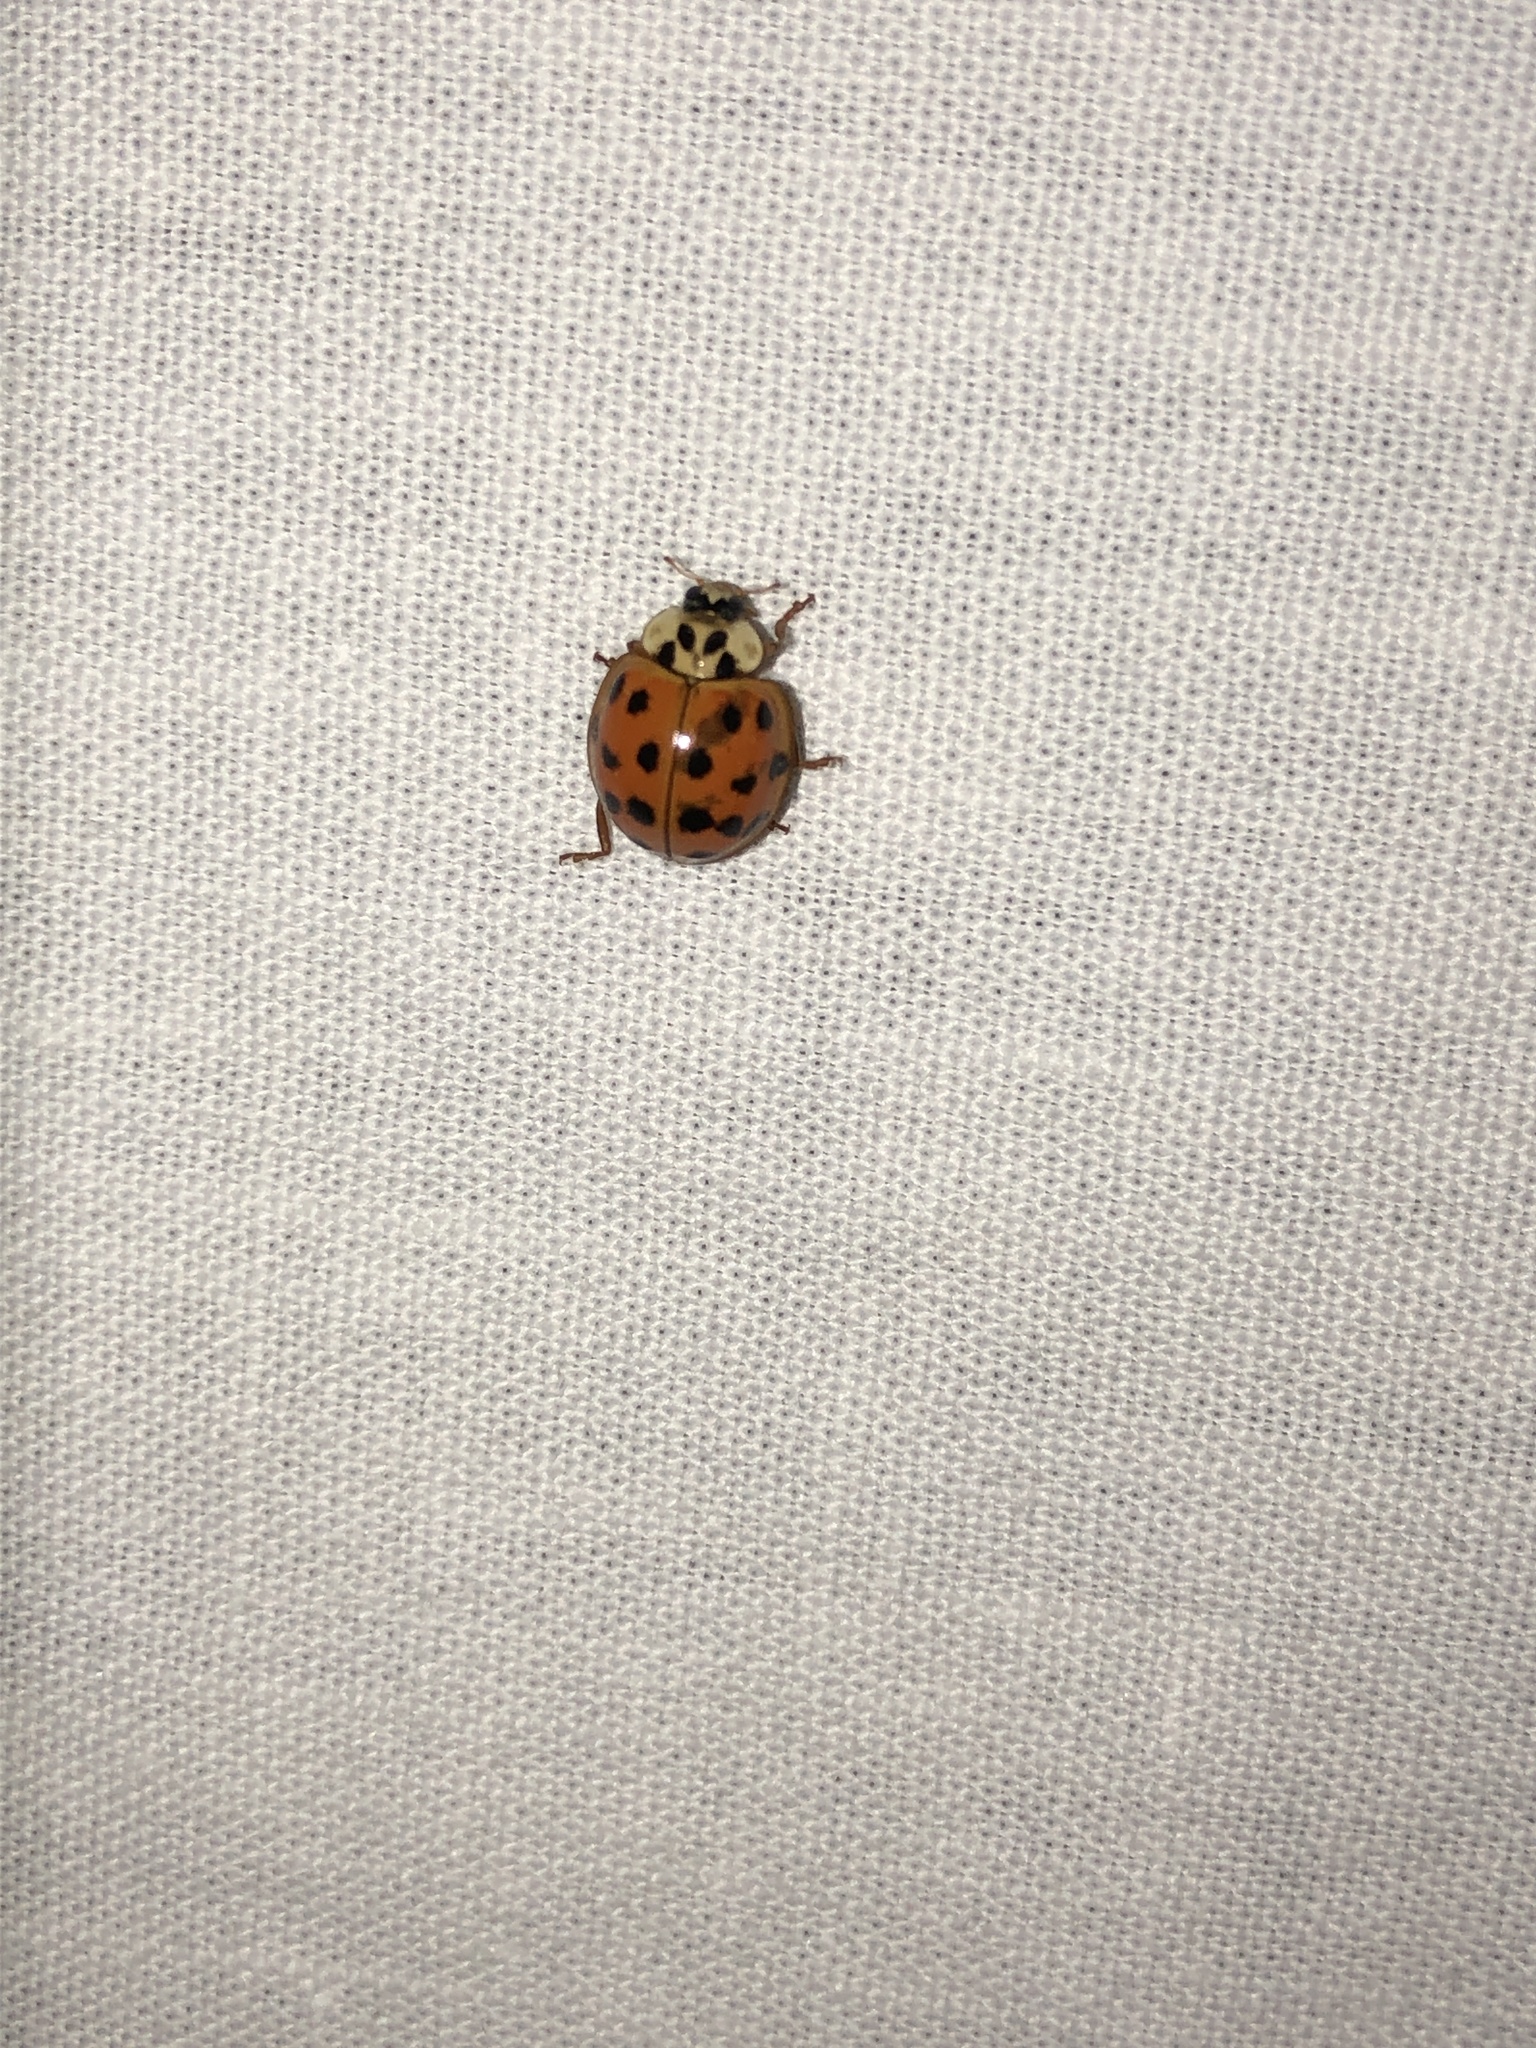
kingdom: Animalia
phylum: Arthropoda
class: Insecta
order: Coleoptera
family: Coccinellidae
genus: Harmonia
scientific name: Harmonia axyridis
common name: Harlequin ladybird
